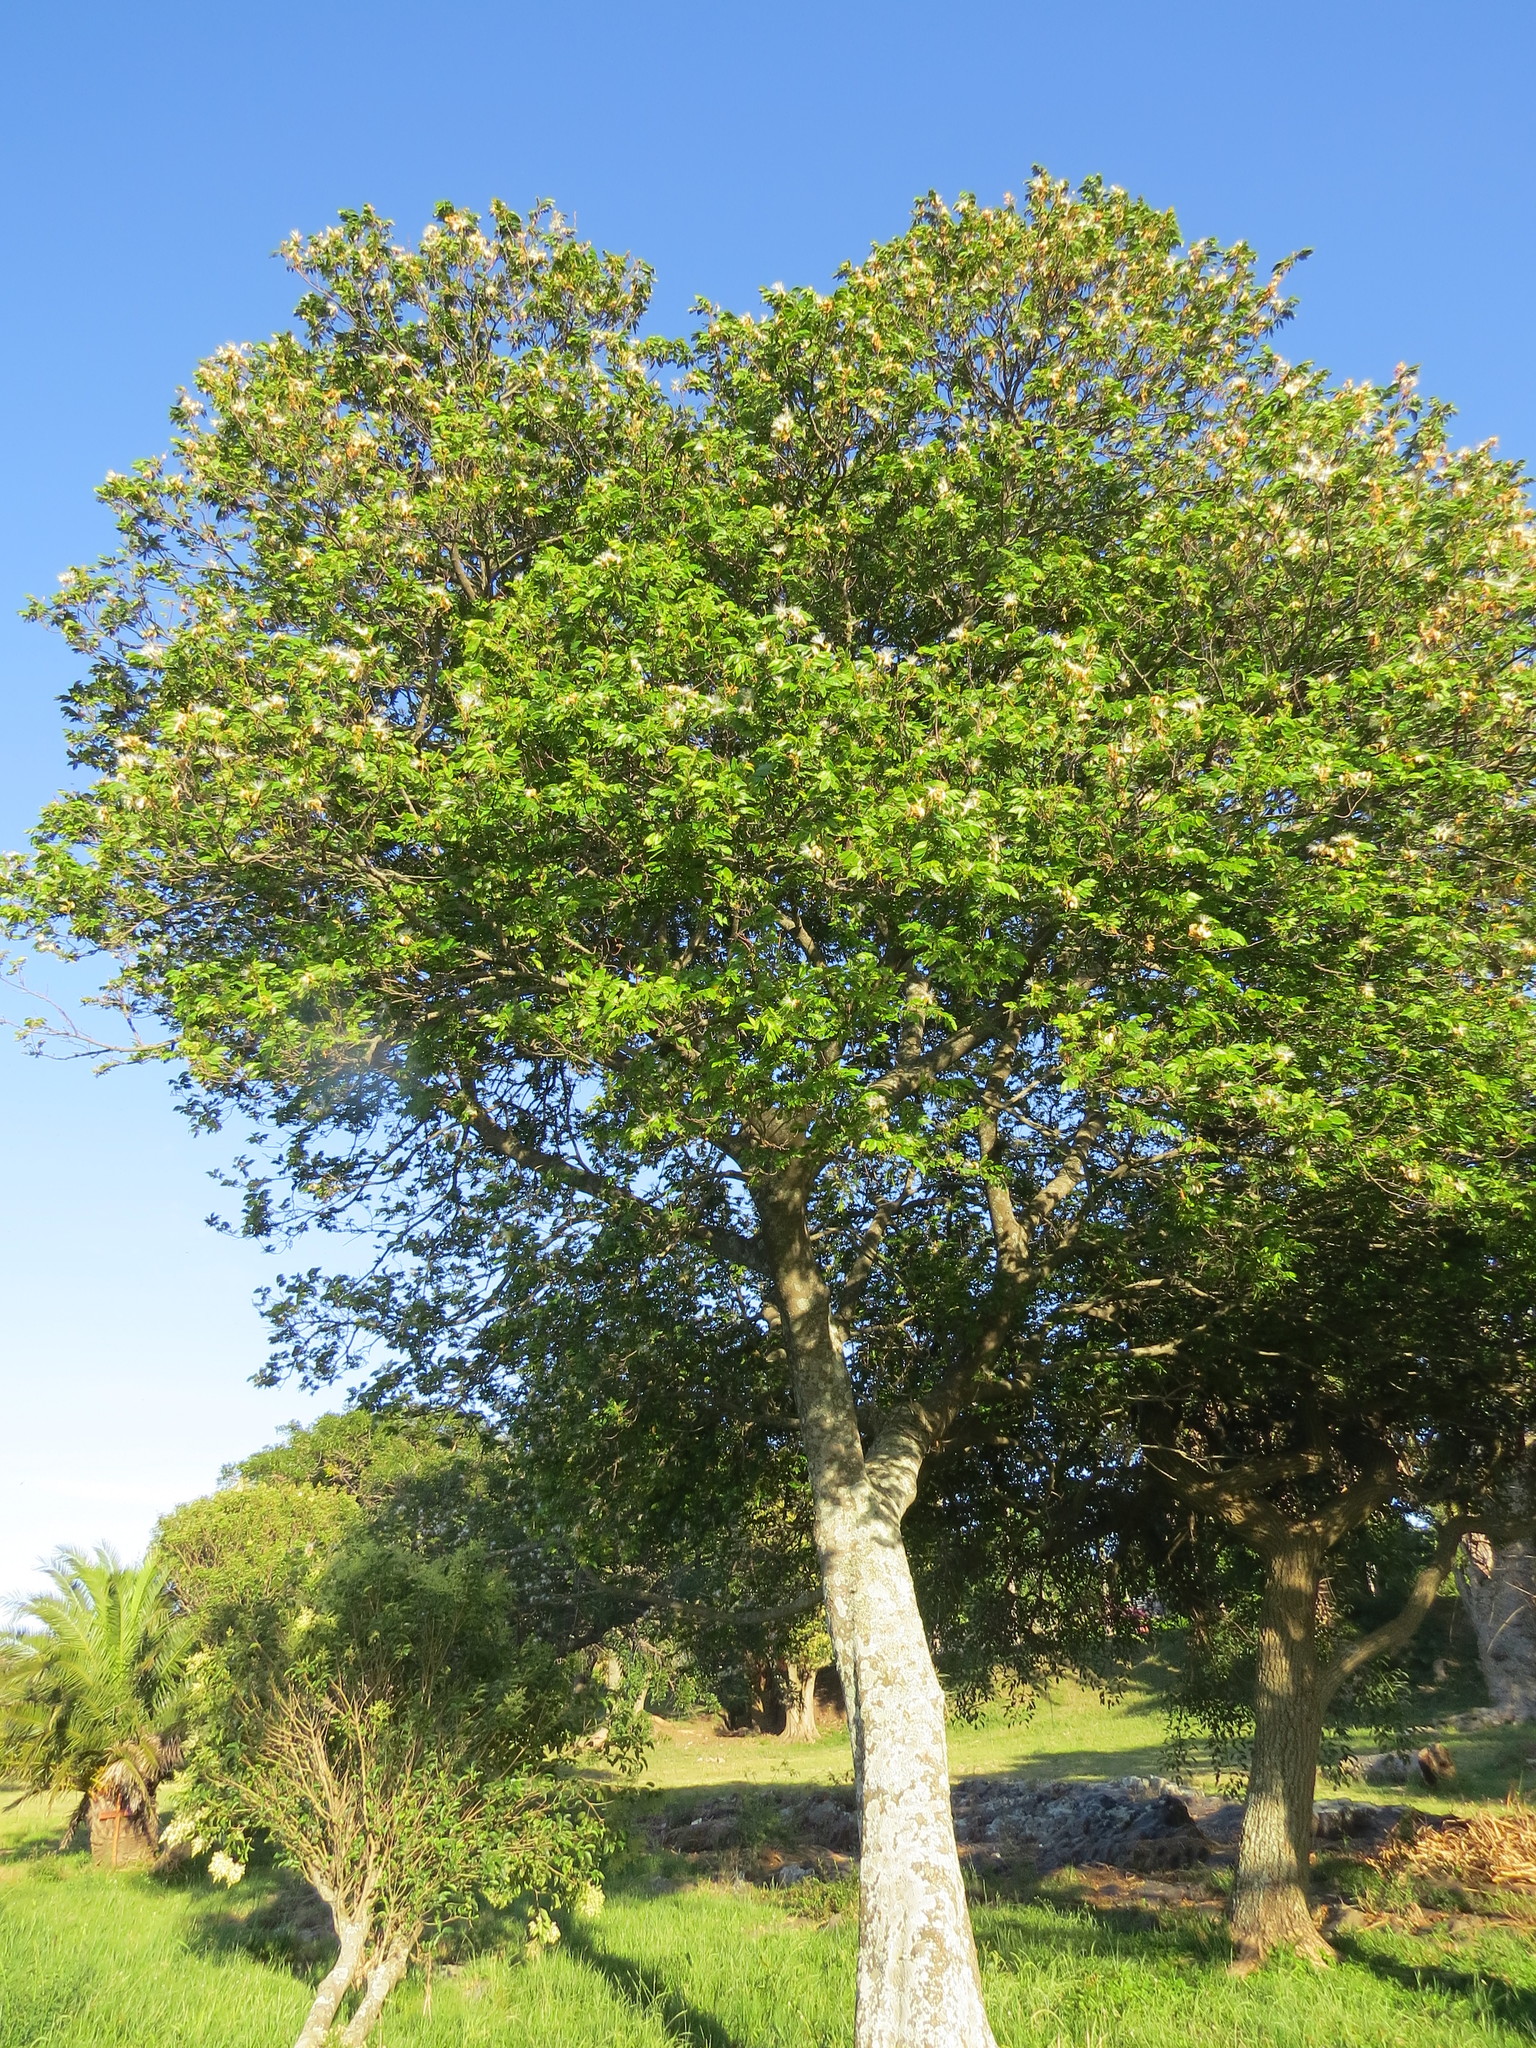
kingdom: Plantae
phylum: Tracheophyta
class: Magnoliopsida
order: Fabales
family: Fabaceae
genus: Inga
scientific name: Inga uraguensis
